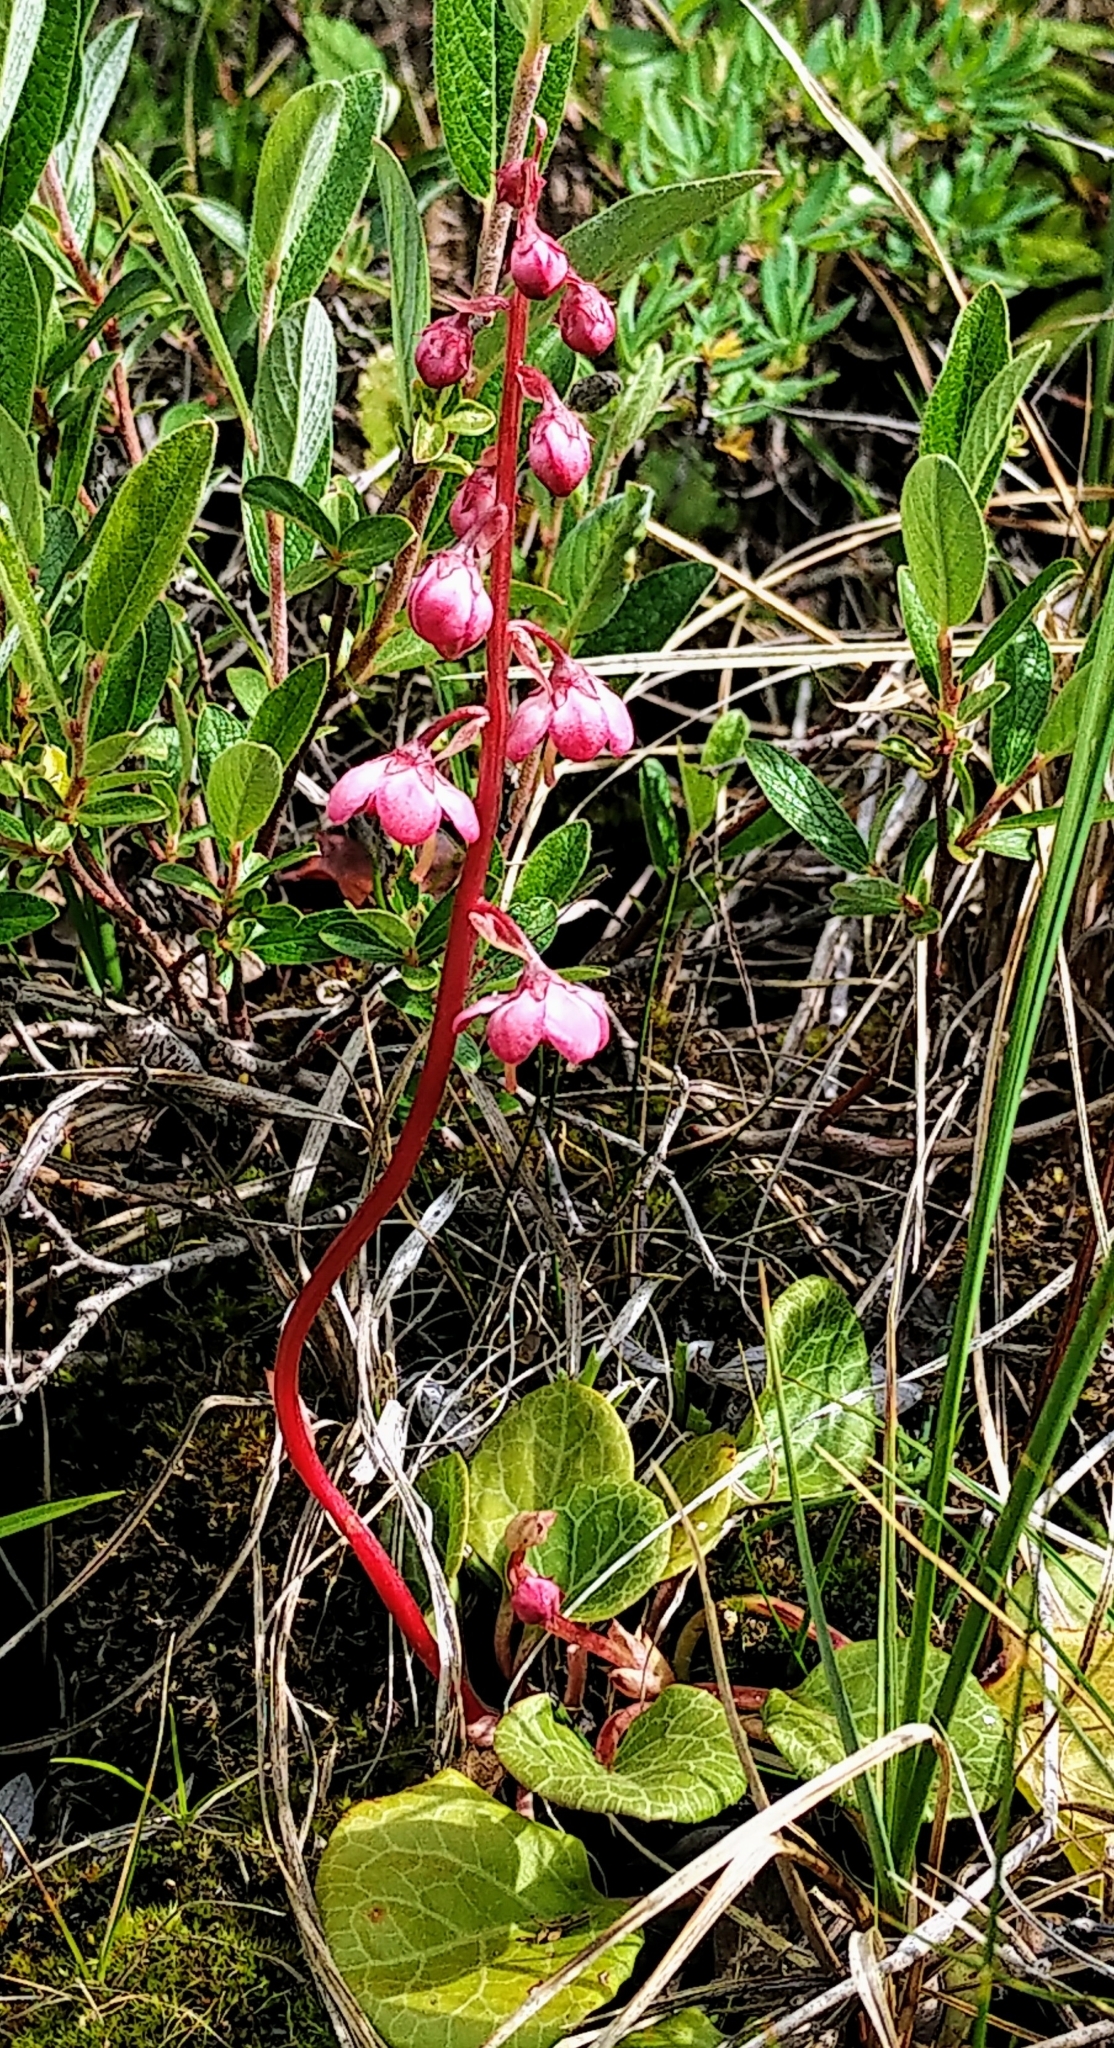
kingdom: Plantae
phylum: Tracheophyta
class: Magnoliopsida
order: Ericales
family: Ericaceae
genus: Pyrola
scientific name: Pyrola asarifolia
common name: Bog wintergreen
